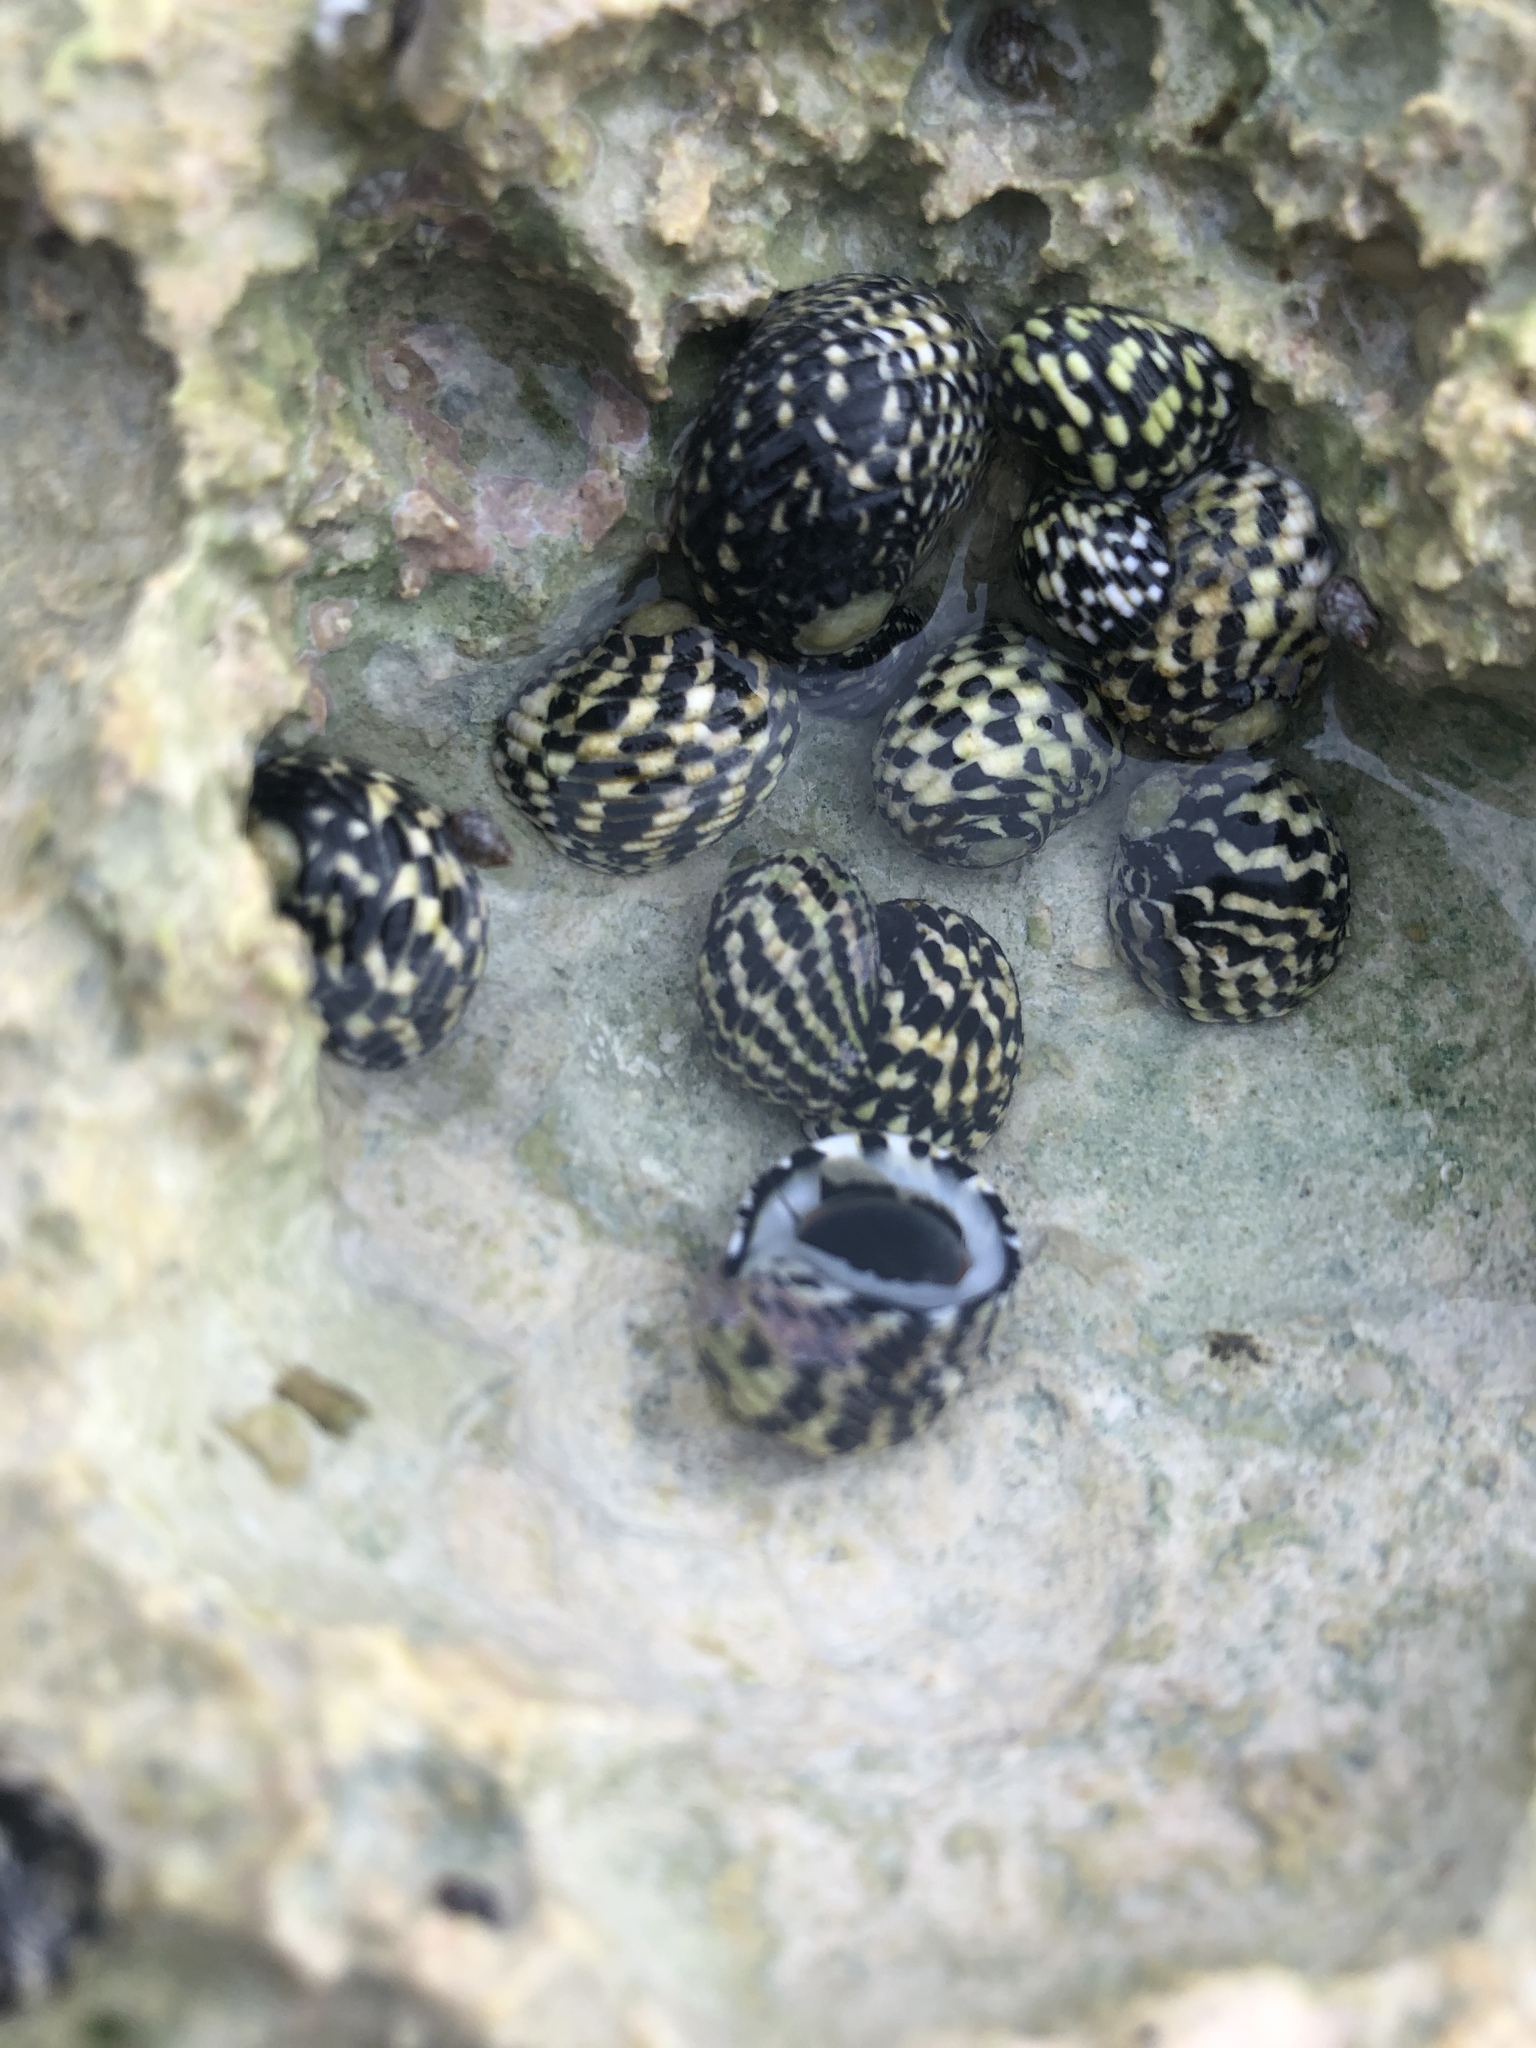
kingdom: Animalia
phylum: Mollusca
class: Gastropoda
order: Cycloneritida
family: Neritidae
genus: Nerita
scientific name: Nerita tessellata
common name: Checkered nerite
